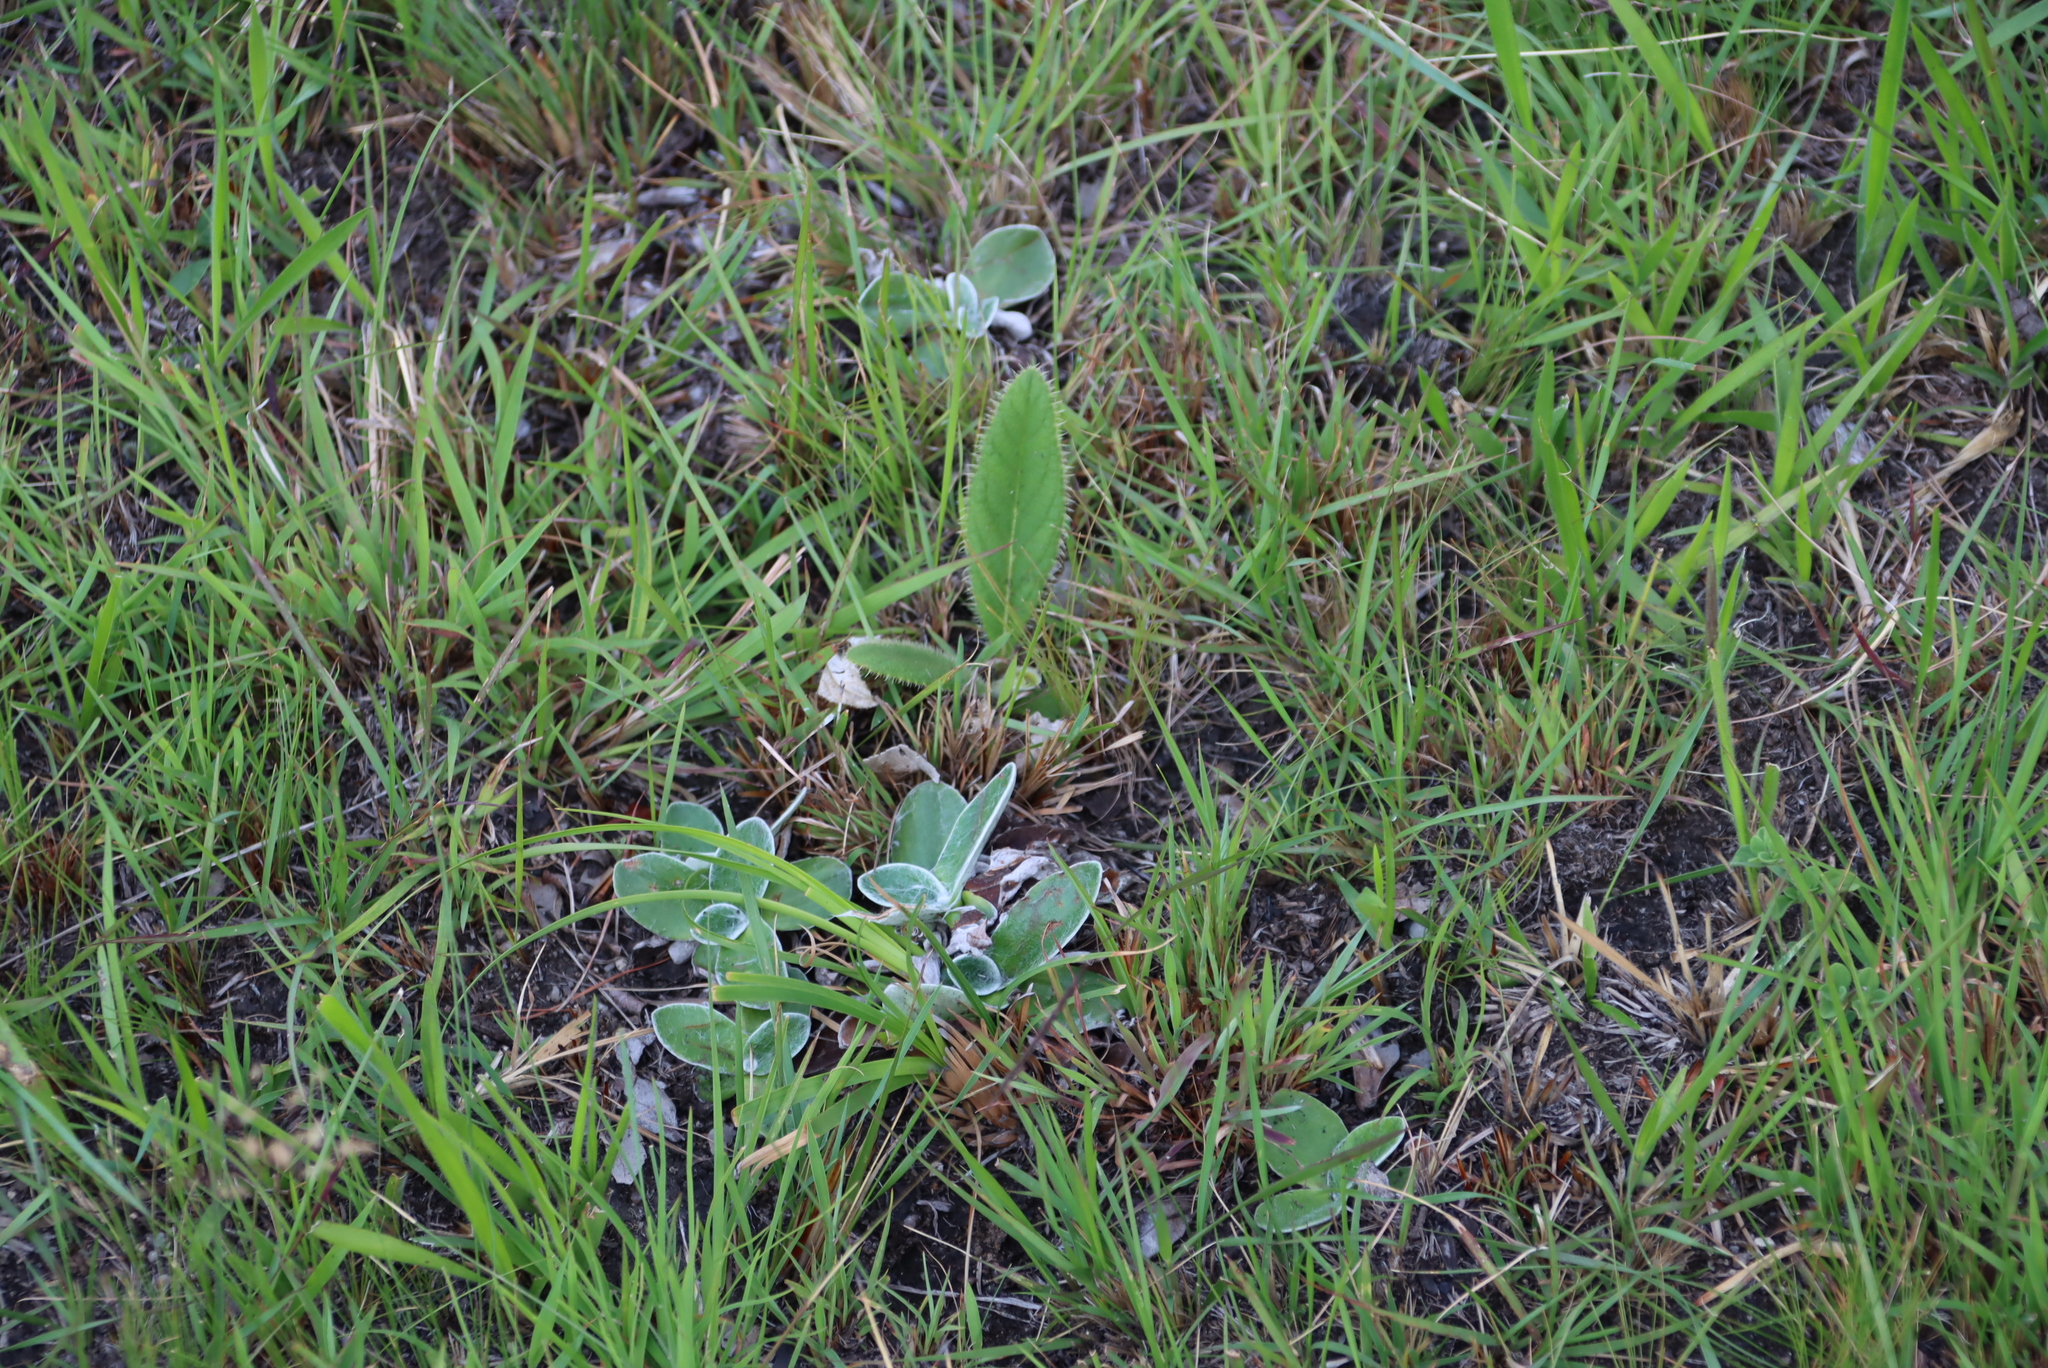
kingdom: Plantae
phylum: Tracheophyta
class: Magnoliopsida
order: Asterales
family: Asteraceae
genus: Helichrysum
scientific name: Helichrysum subluteum
